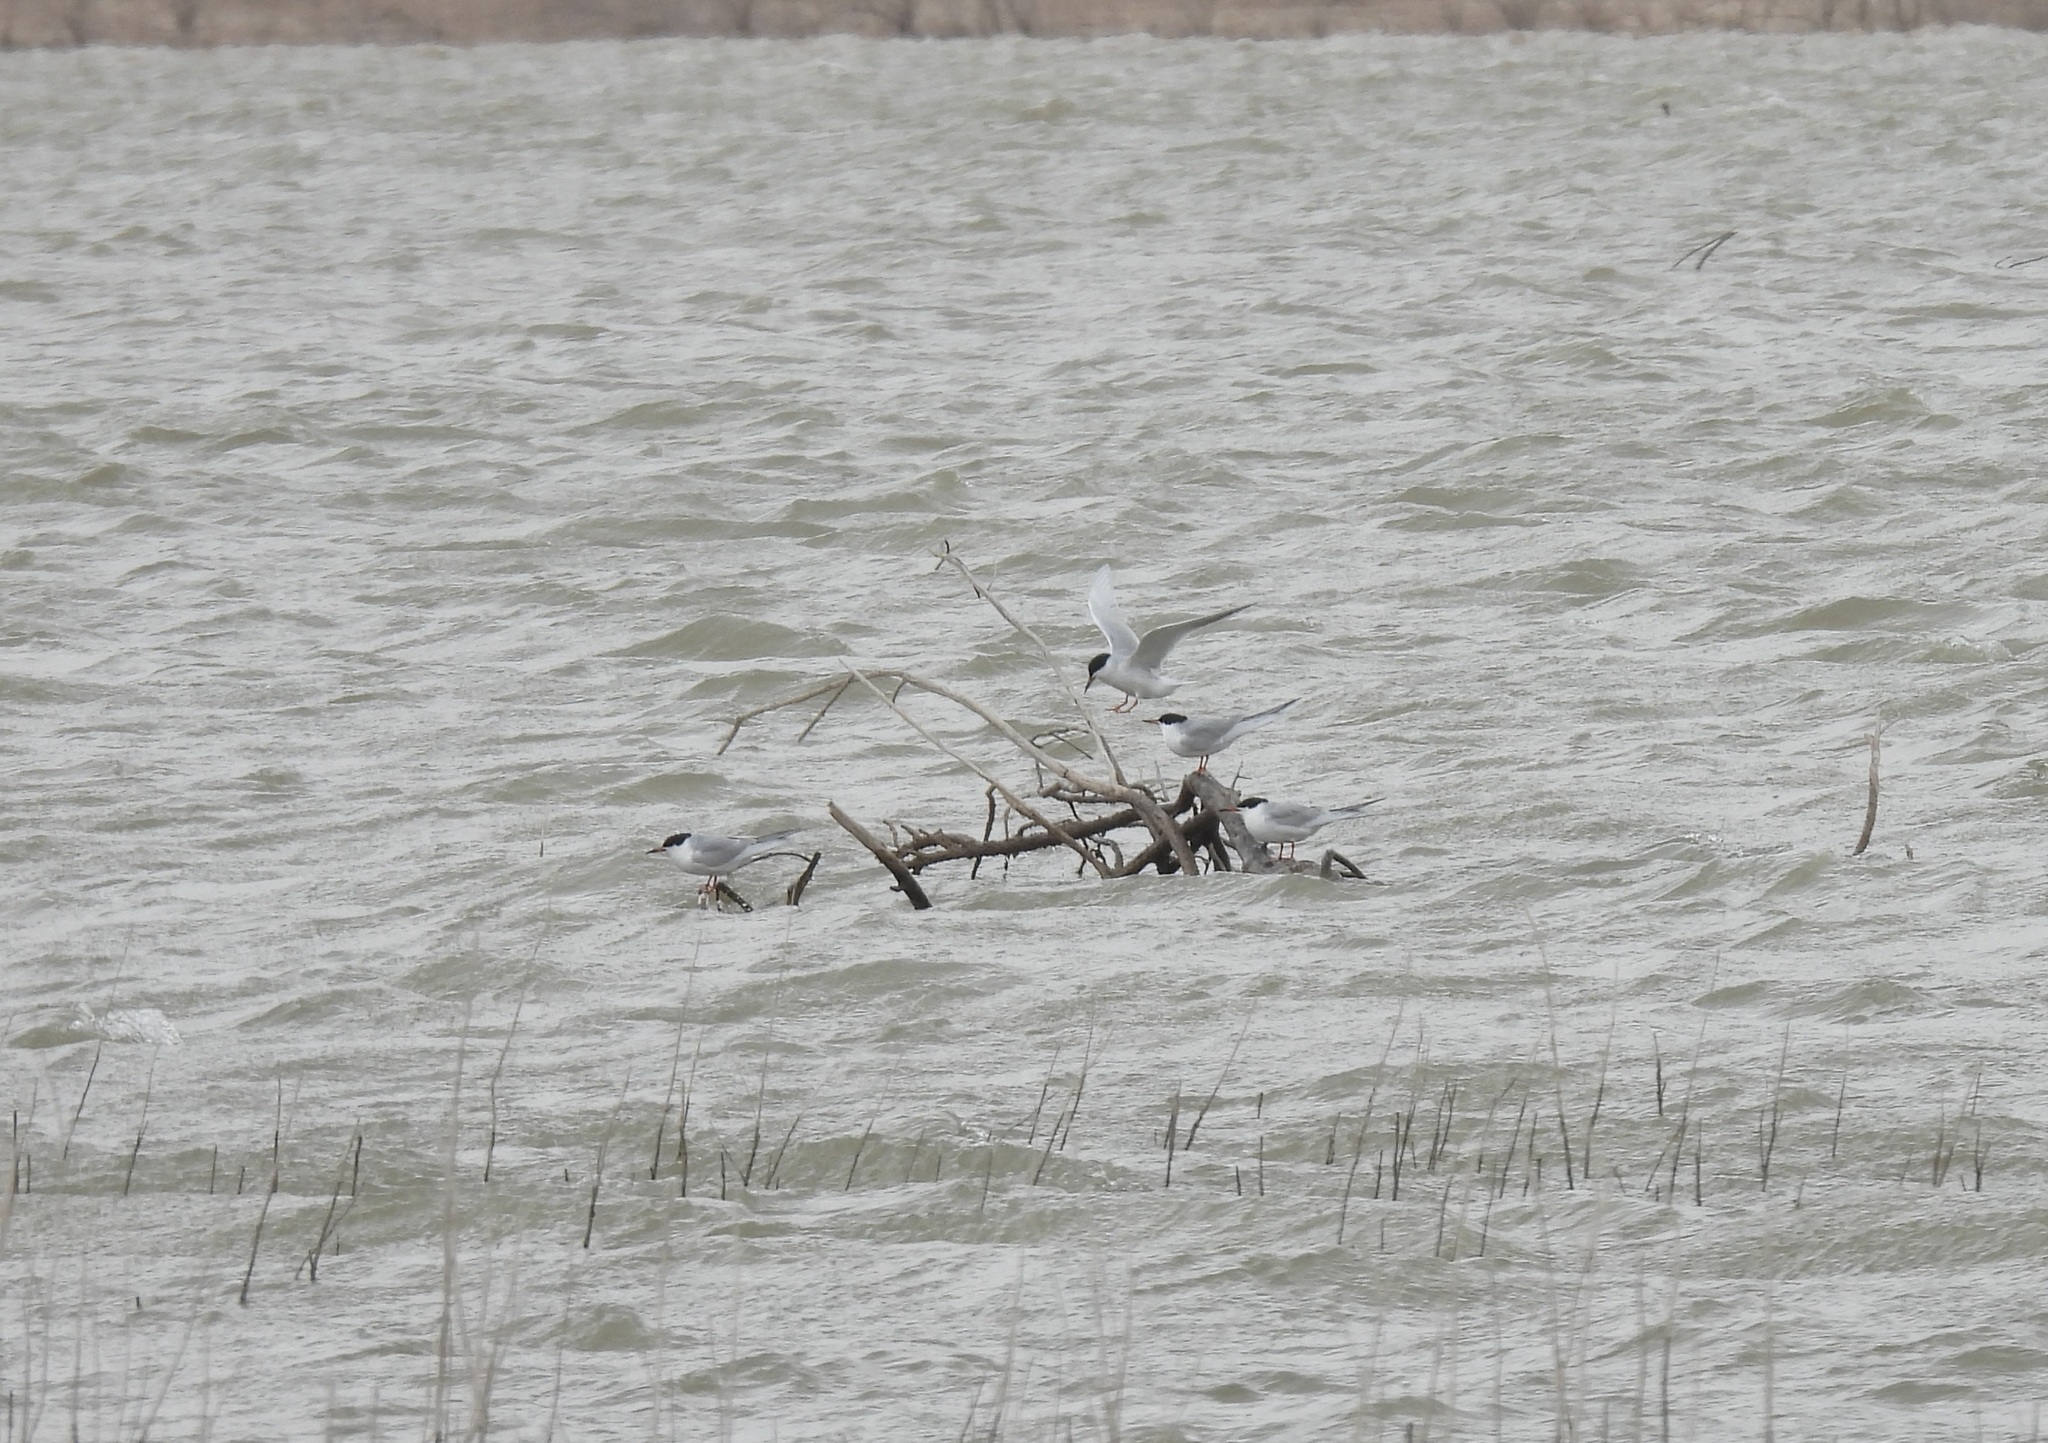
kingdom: Animalia
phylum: Chordata
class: Aves
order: Charadriiformes
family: Laridae
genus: Sterna
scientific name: Sterna forsteri
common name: Forster's tern
